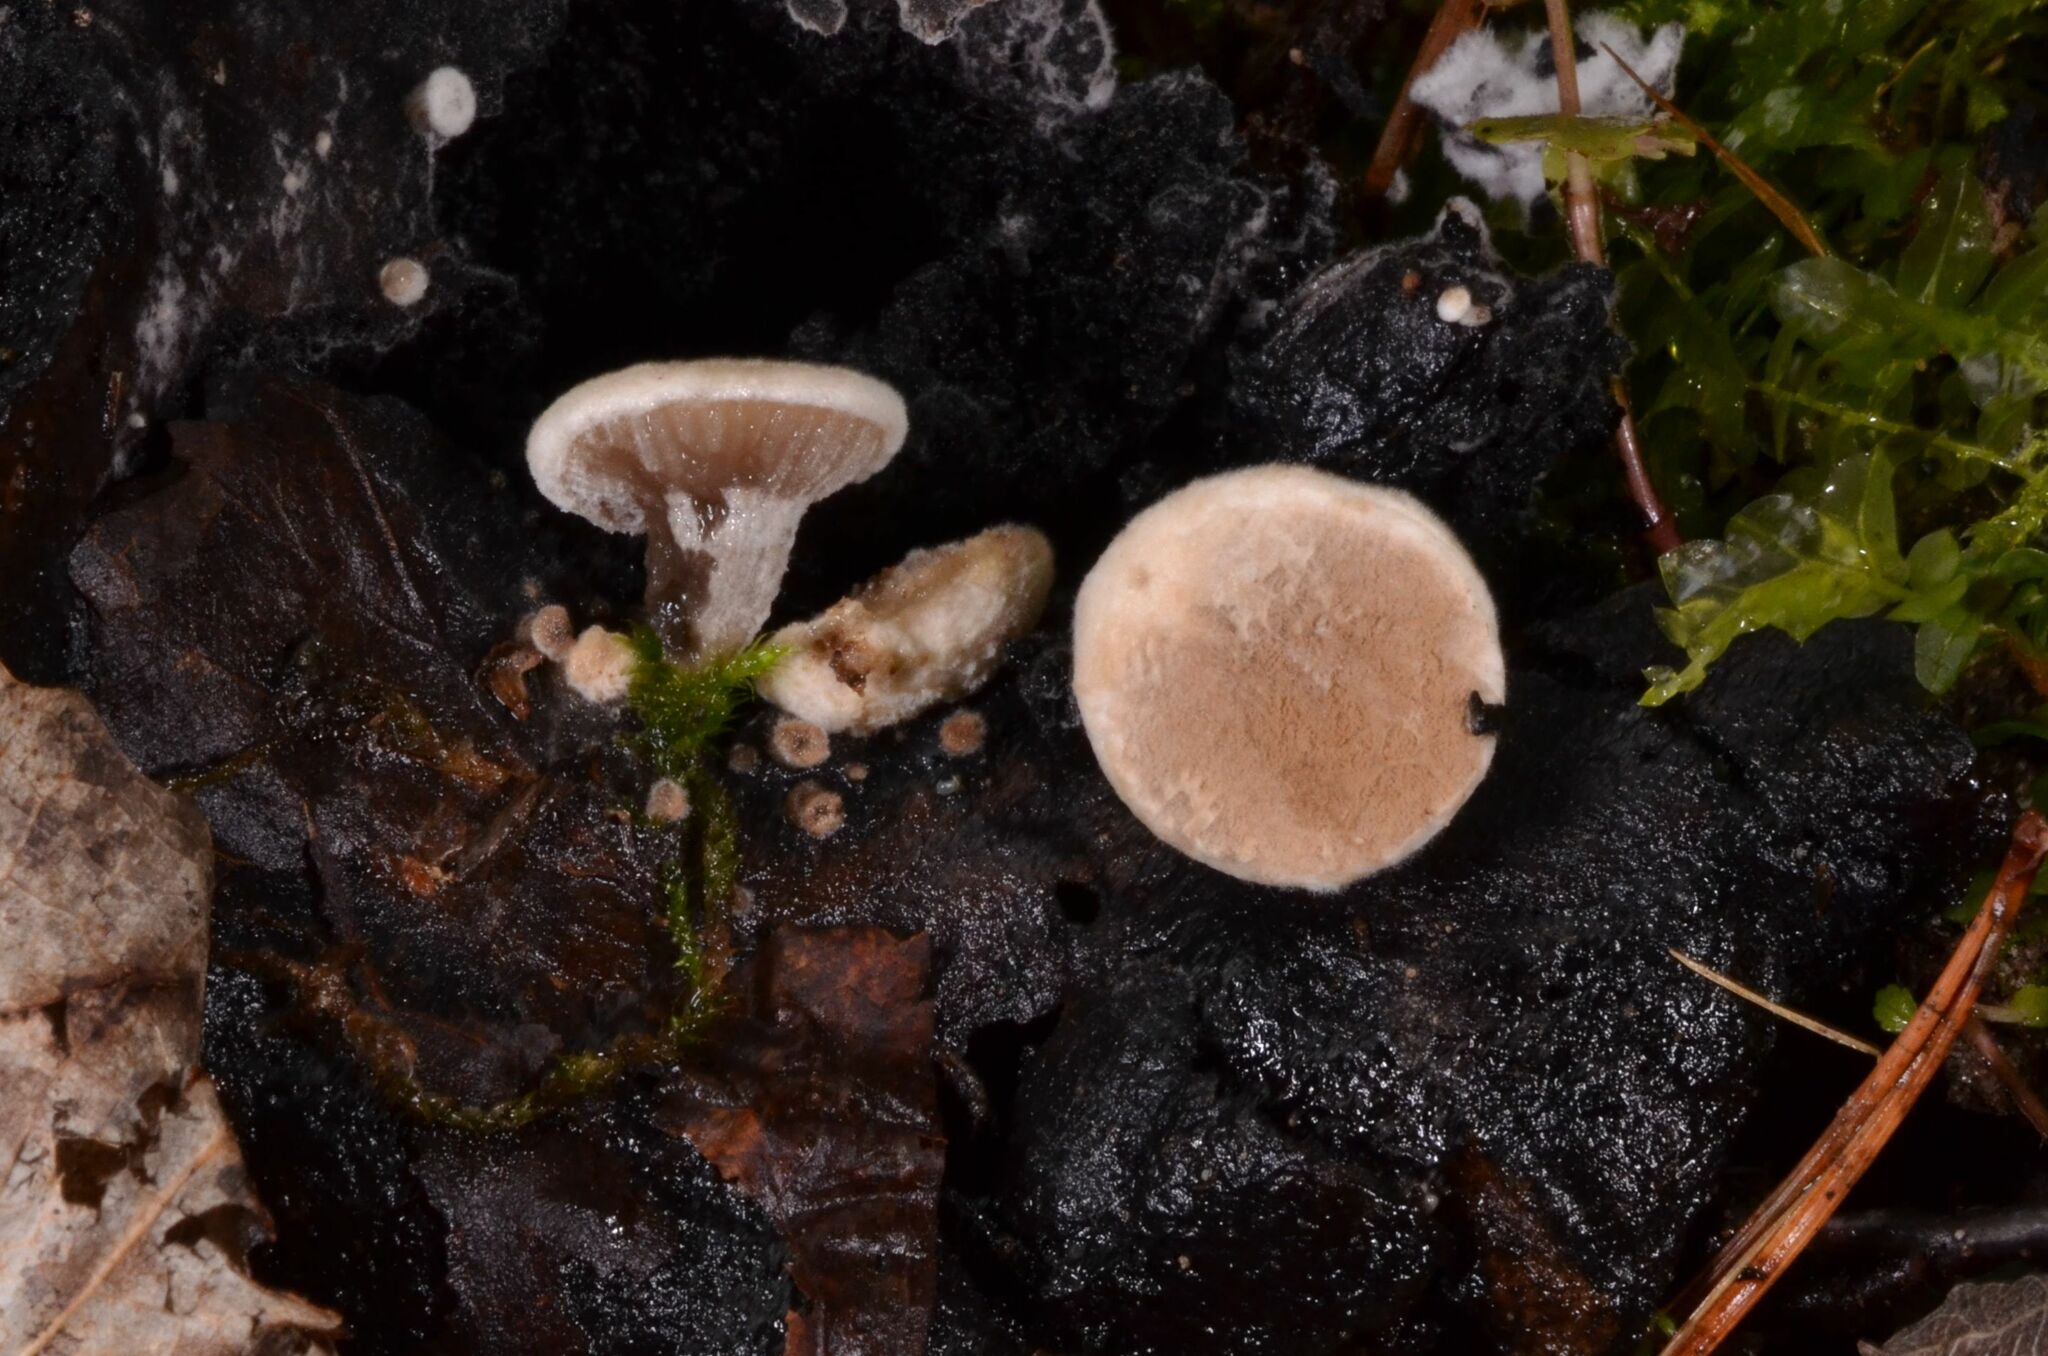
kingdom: Fungi
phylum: Basidiomycota
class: Agaricomycetes
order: Agaricales
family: Lyophyllaceae
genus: Asterophora
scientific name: Asterophora lycoperdoides
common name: Pick-a-back toadstool
